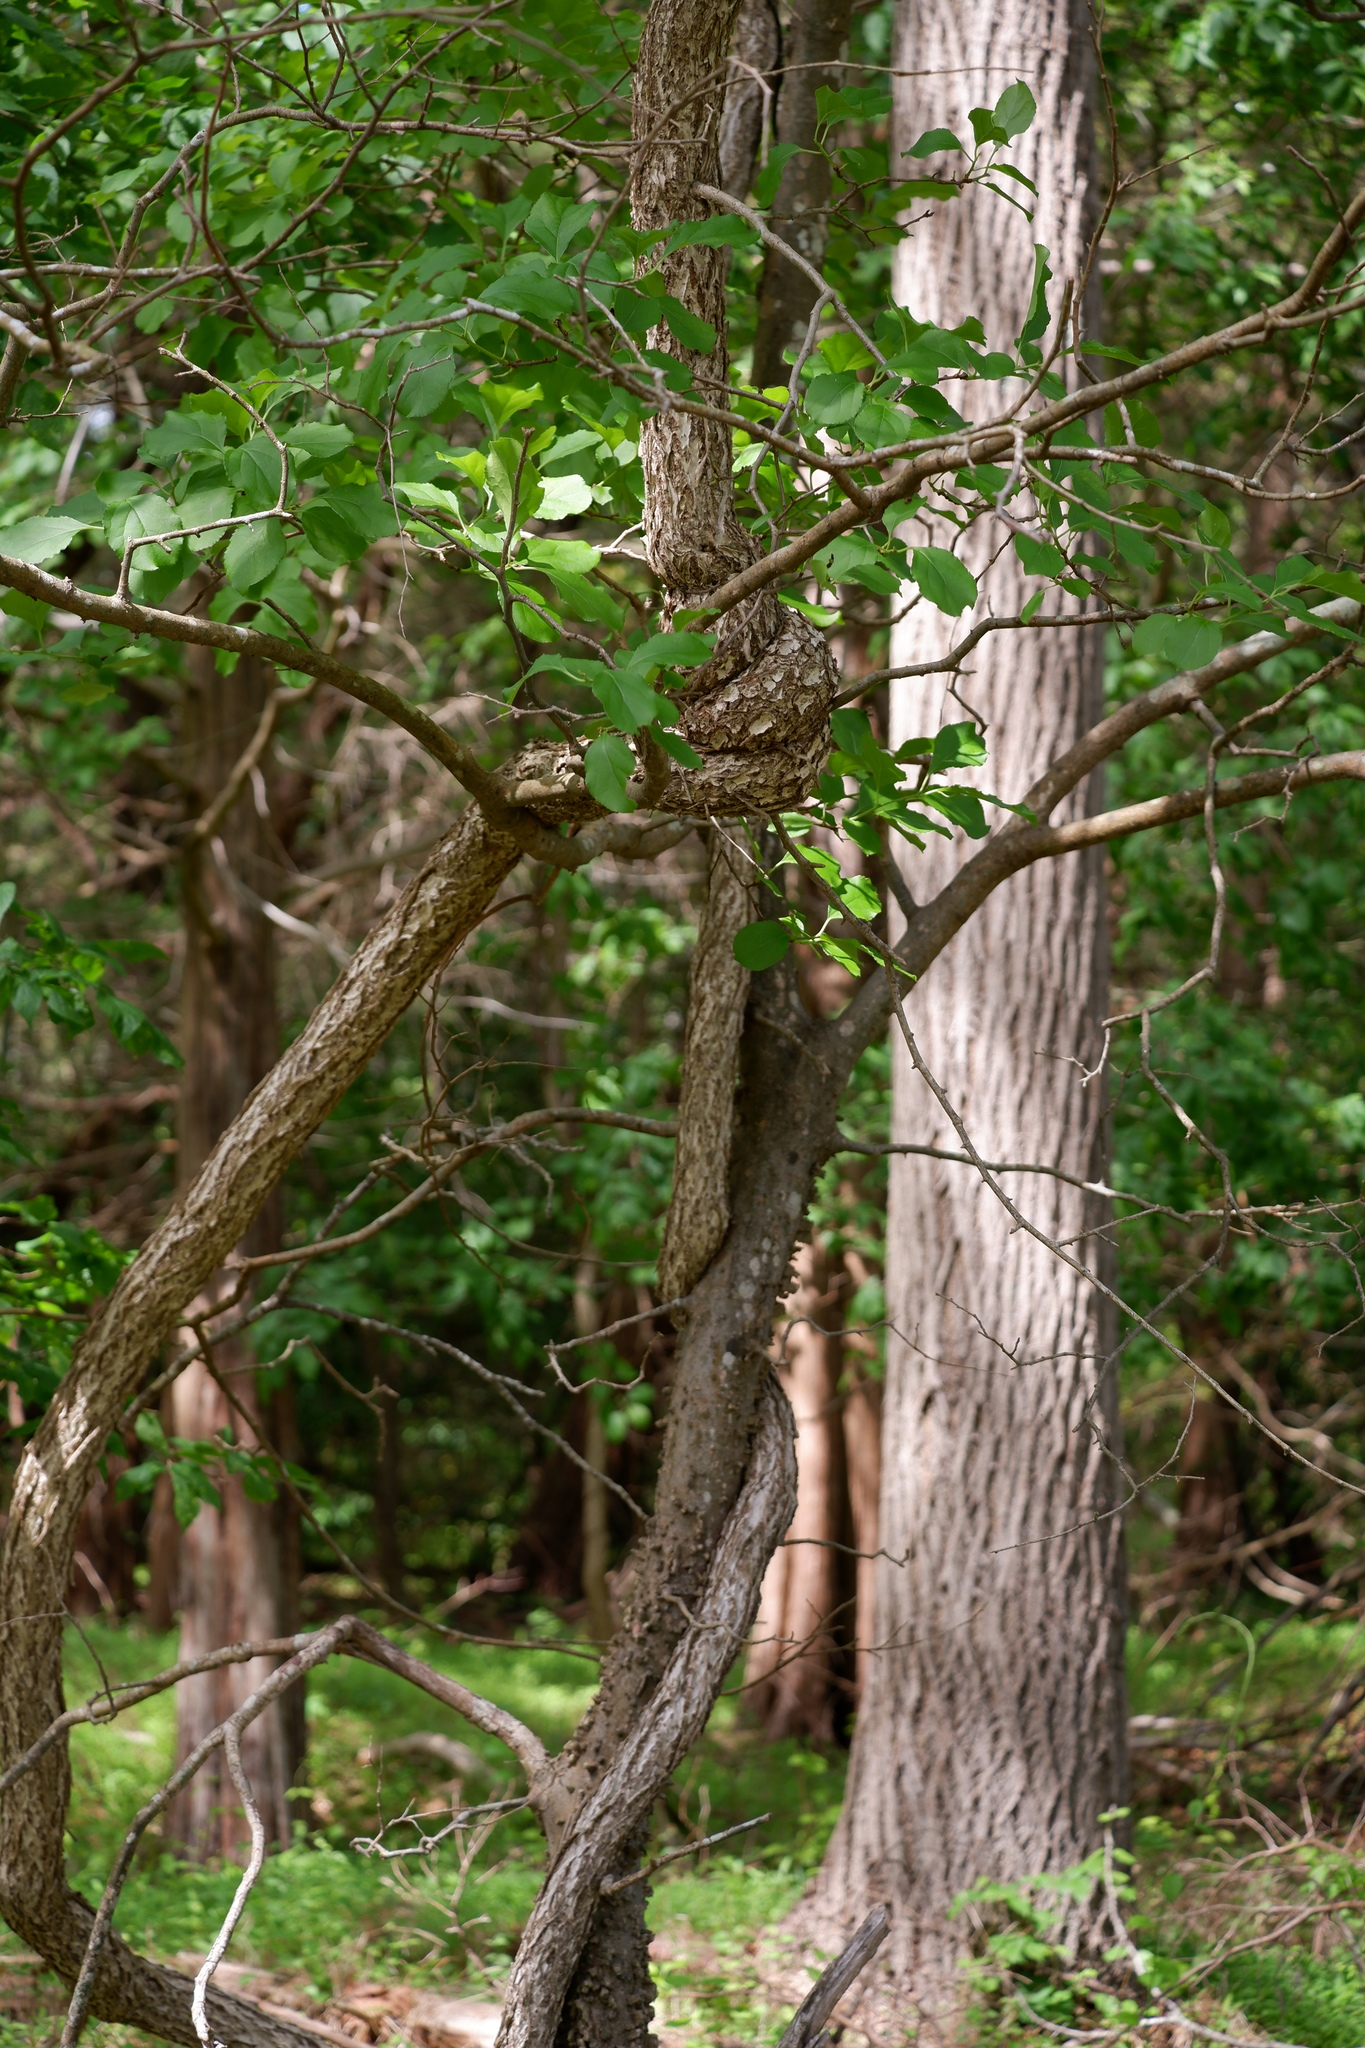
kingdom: Plantae
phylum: Tracheophyta
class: Magnoliopsida
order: Celastrales
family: Celastraceae
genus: Celastrus
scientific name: Celastrus orbiculatus
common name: Oriental bittersweet
